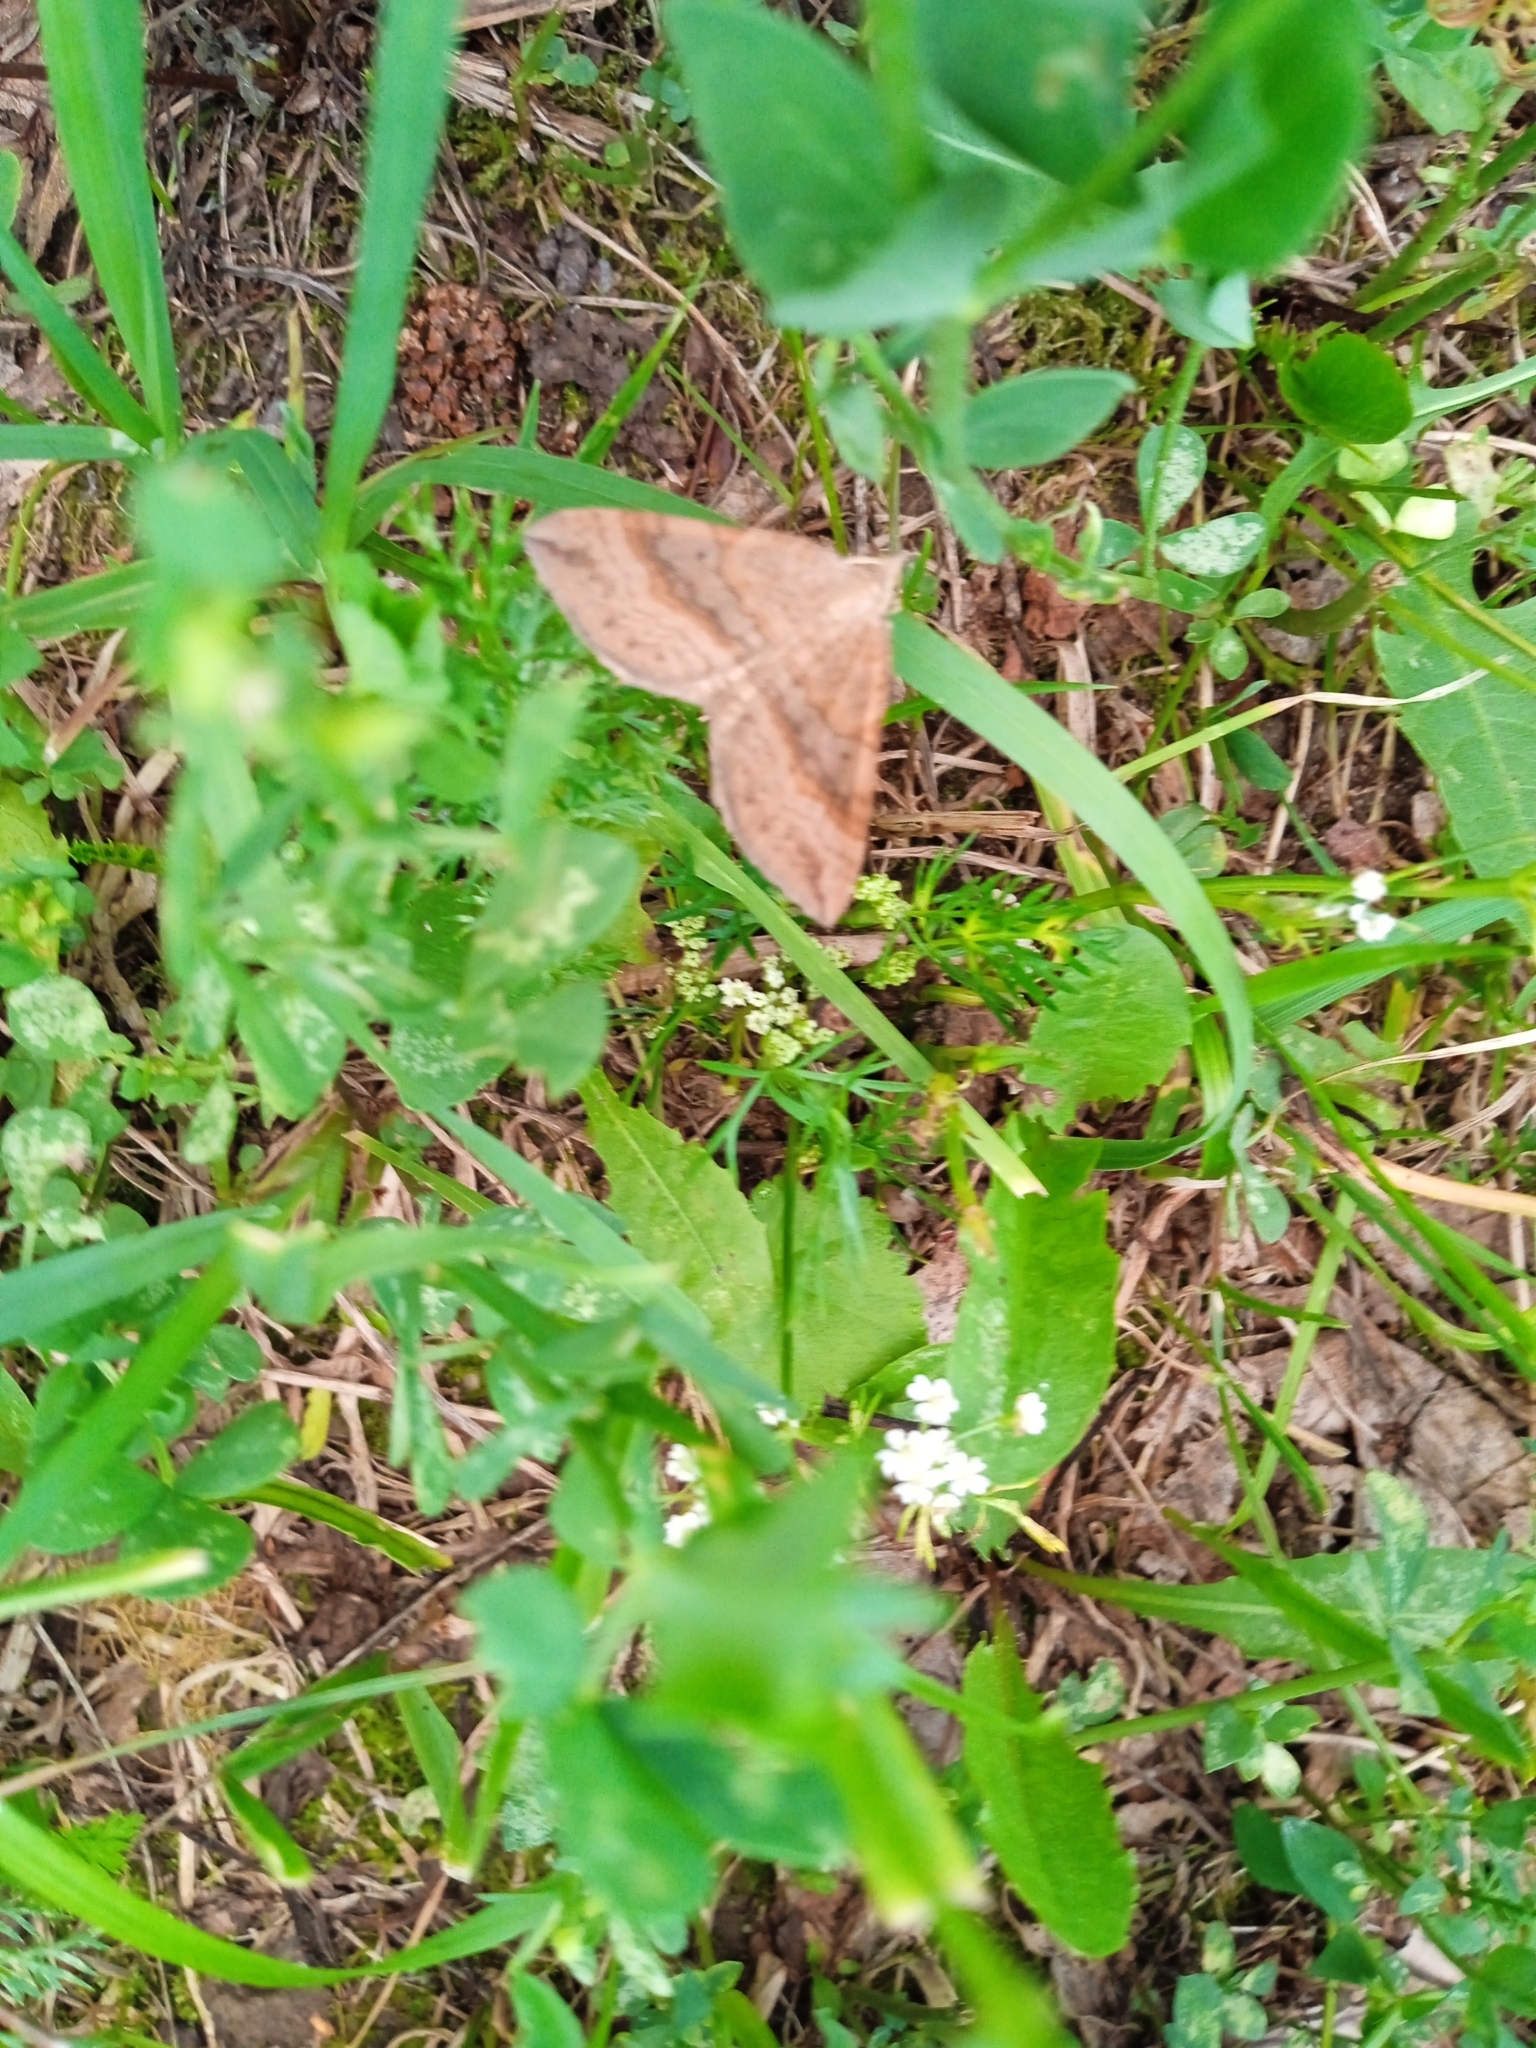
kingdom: Animalia
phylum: Arthropoda
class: Insecta
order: Lepidoptera
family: Geometridae
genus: Scotopteryx
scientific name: Scotopteryx chenopodiata
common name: Shaded broad-bar
